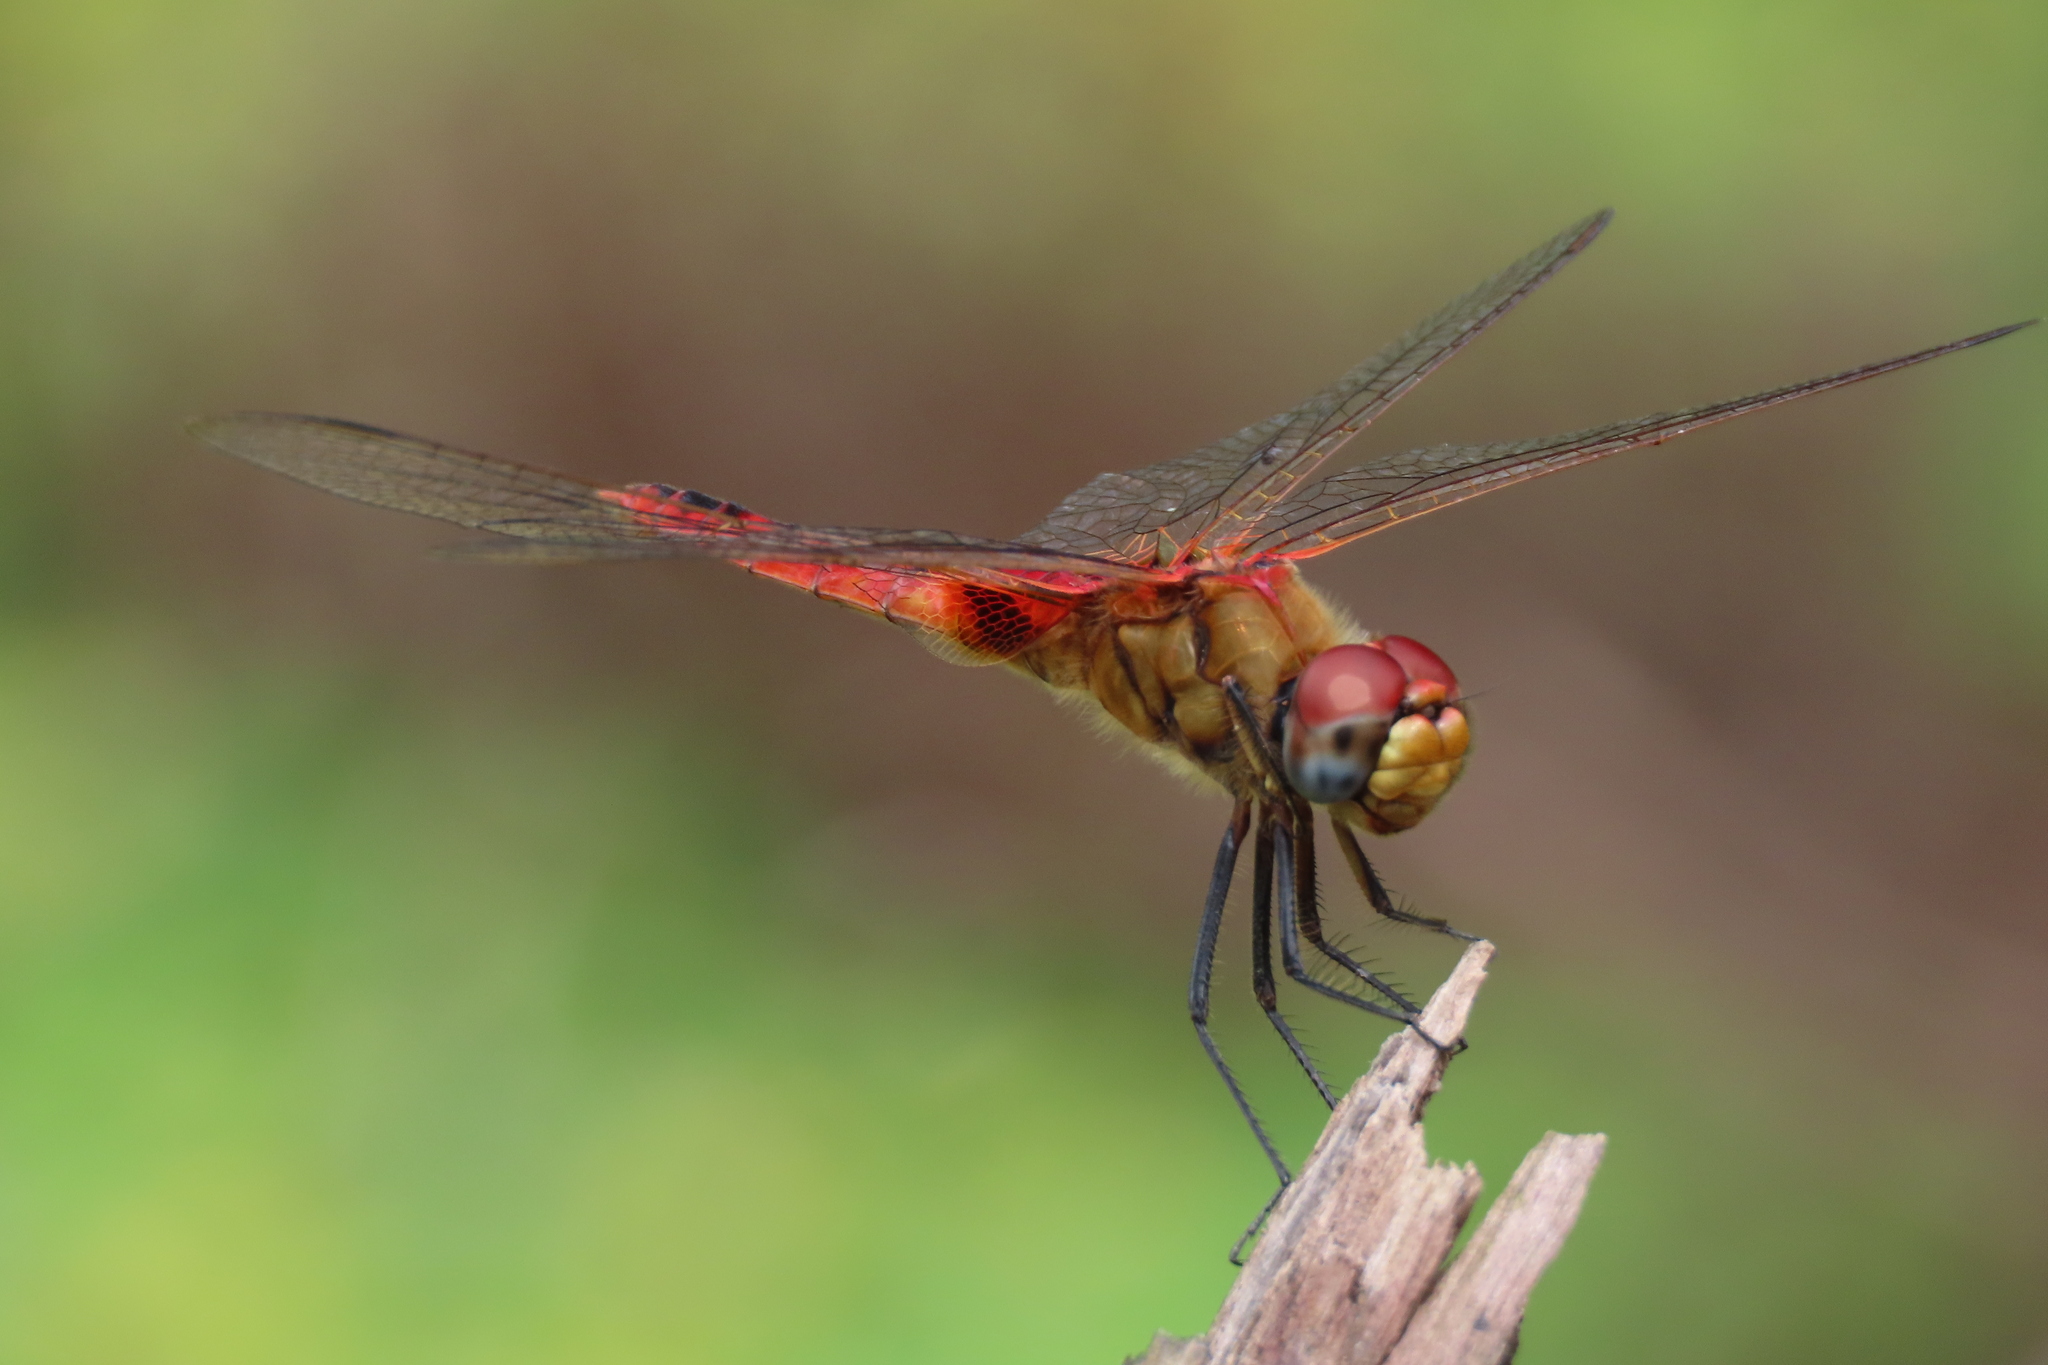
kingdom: Animalia
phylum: Arthropoda
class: Insecta
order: Odonata
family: Libellulidae
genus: Urothemis
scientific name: Urothemis signata
